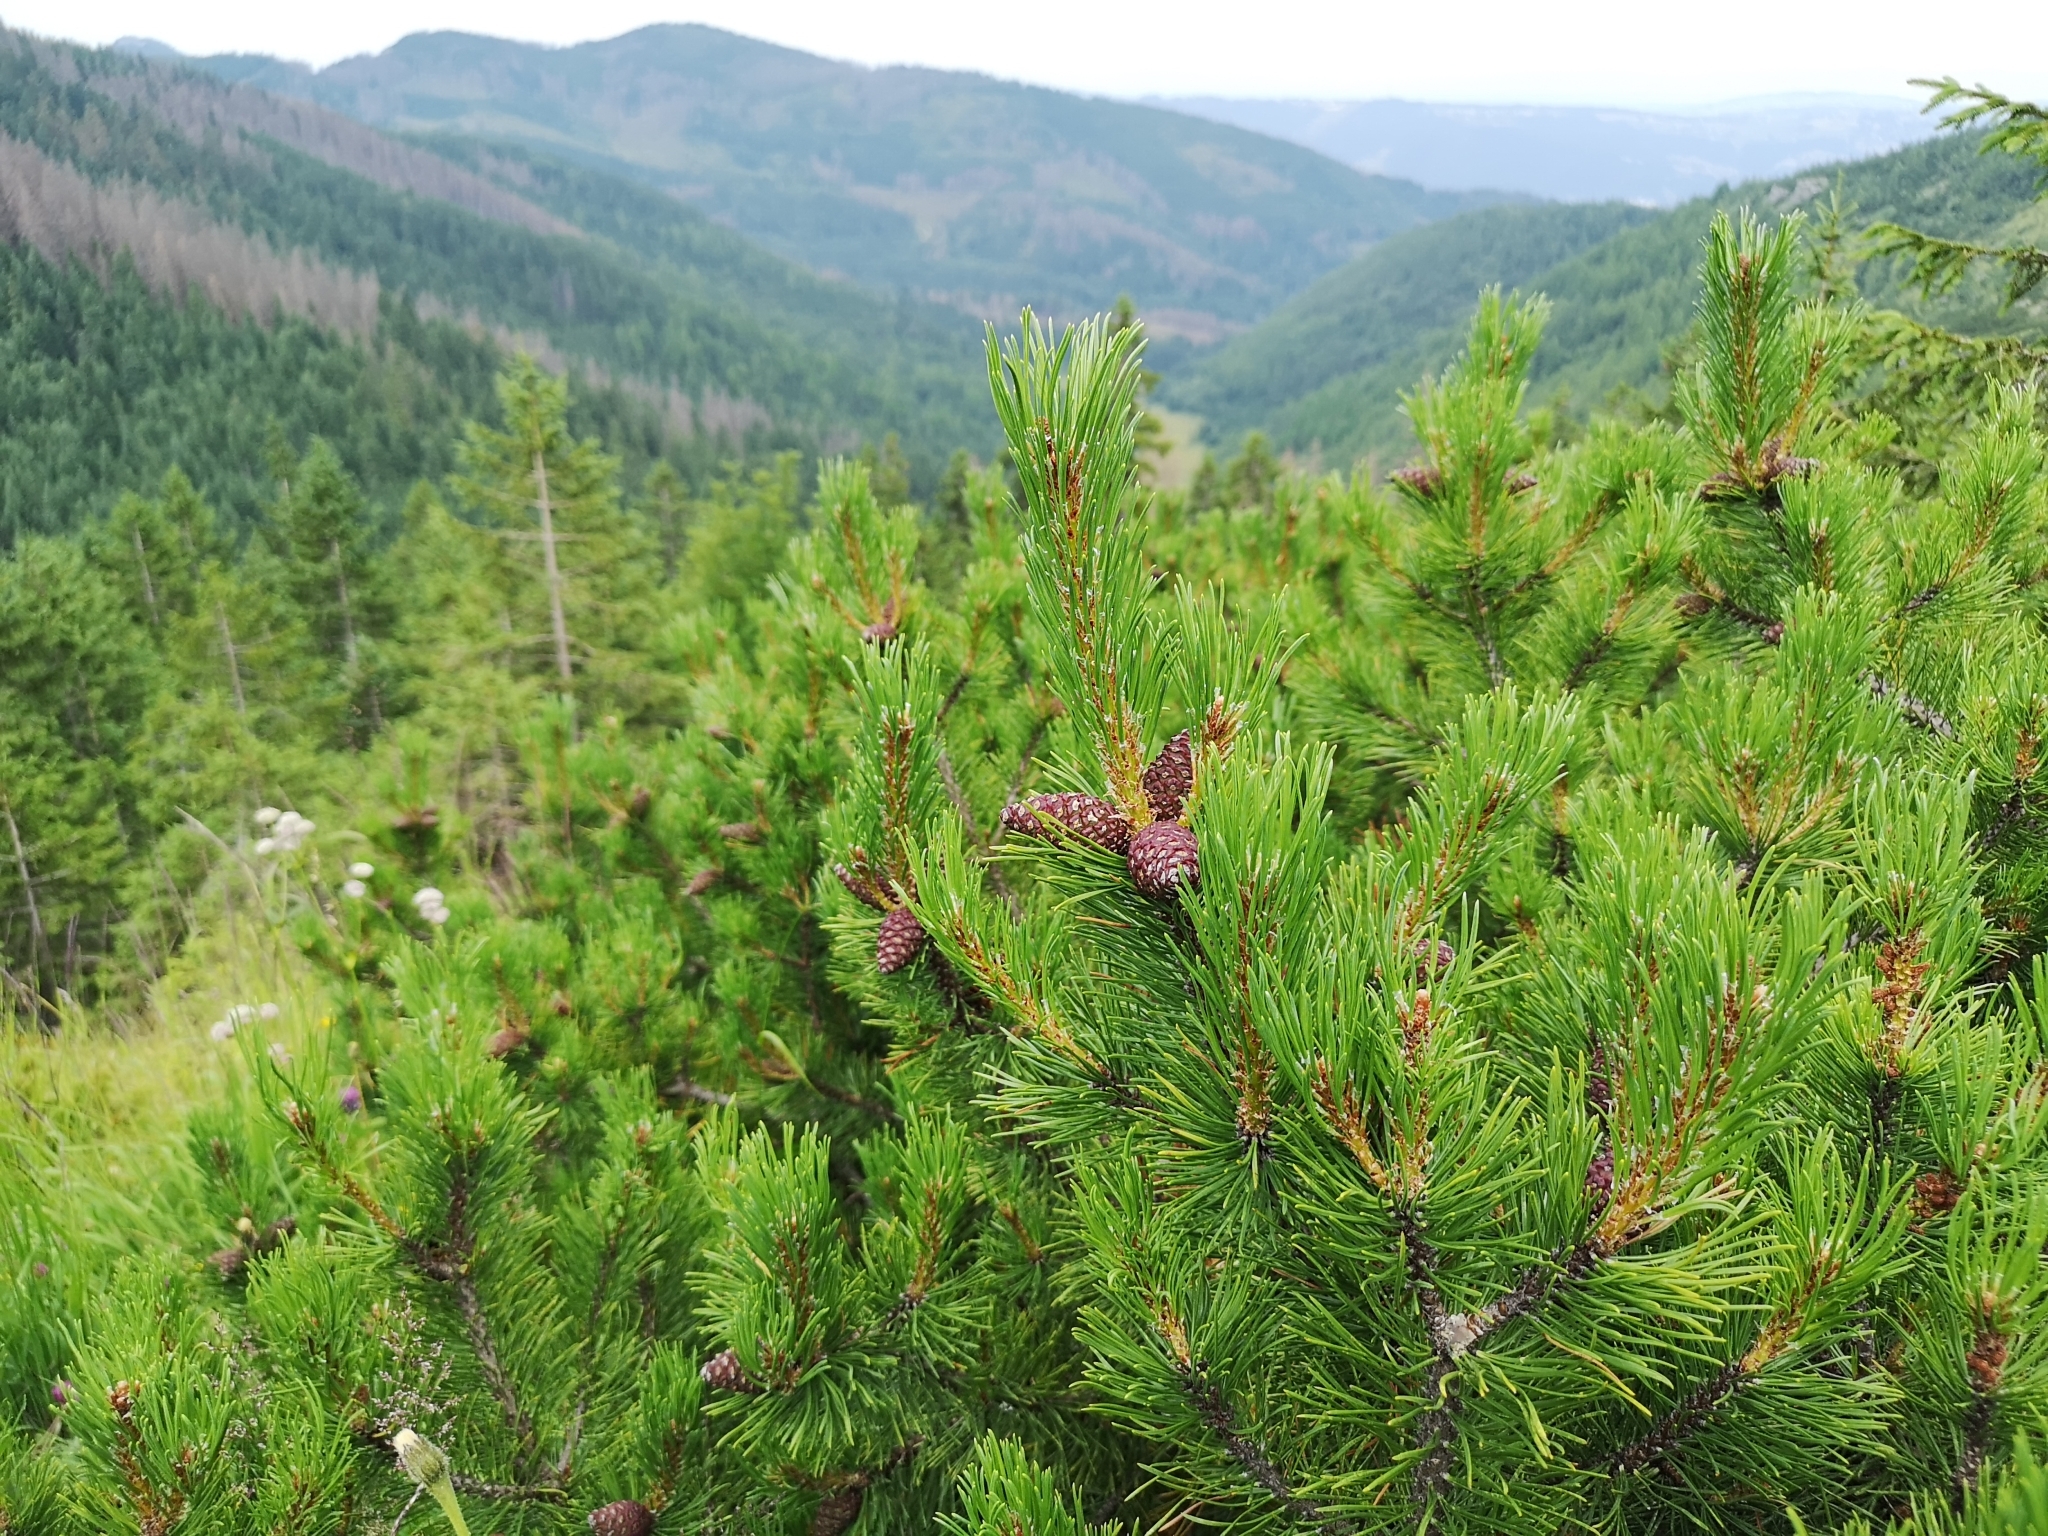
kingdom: Plantae
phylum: Tracheophyta
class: Pinopsida
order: Pinales
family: Pinaceae
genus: Pinus
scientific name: Pinus mugo
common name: Mugo pine
